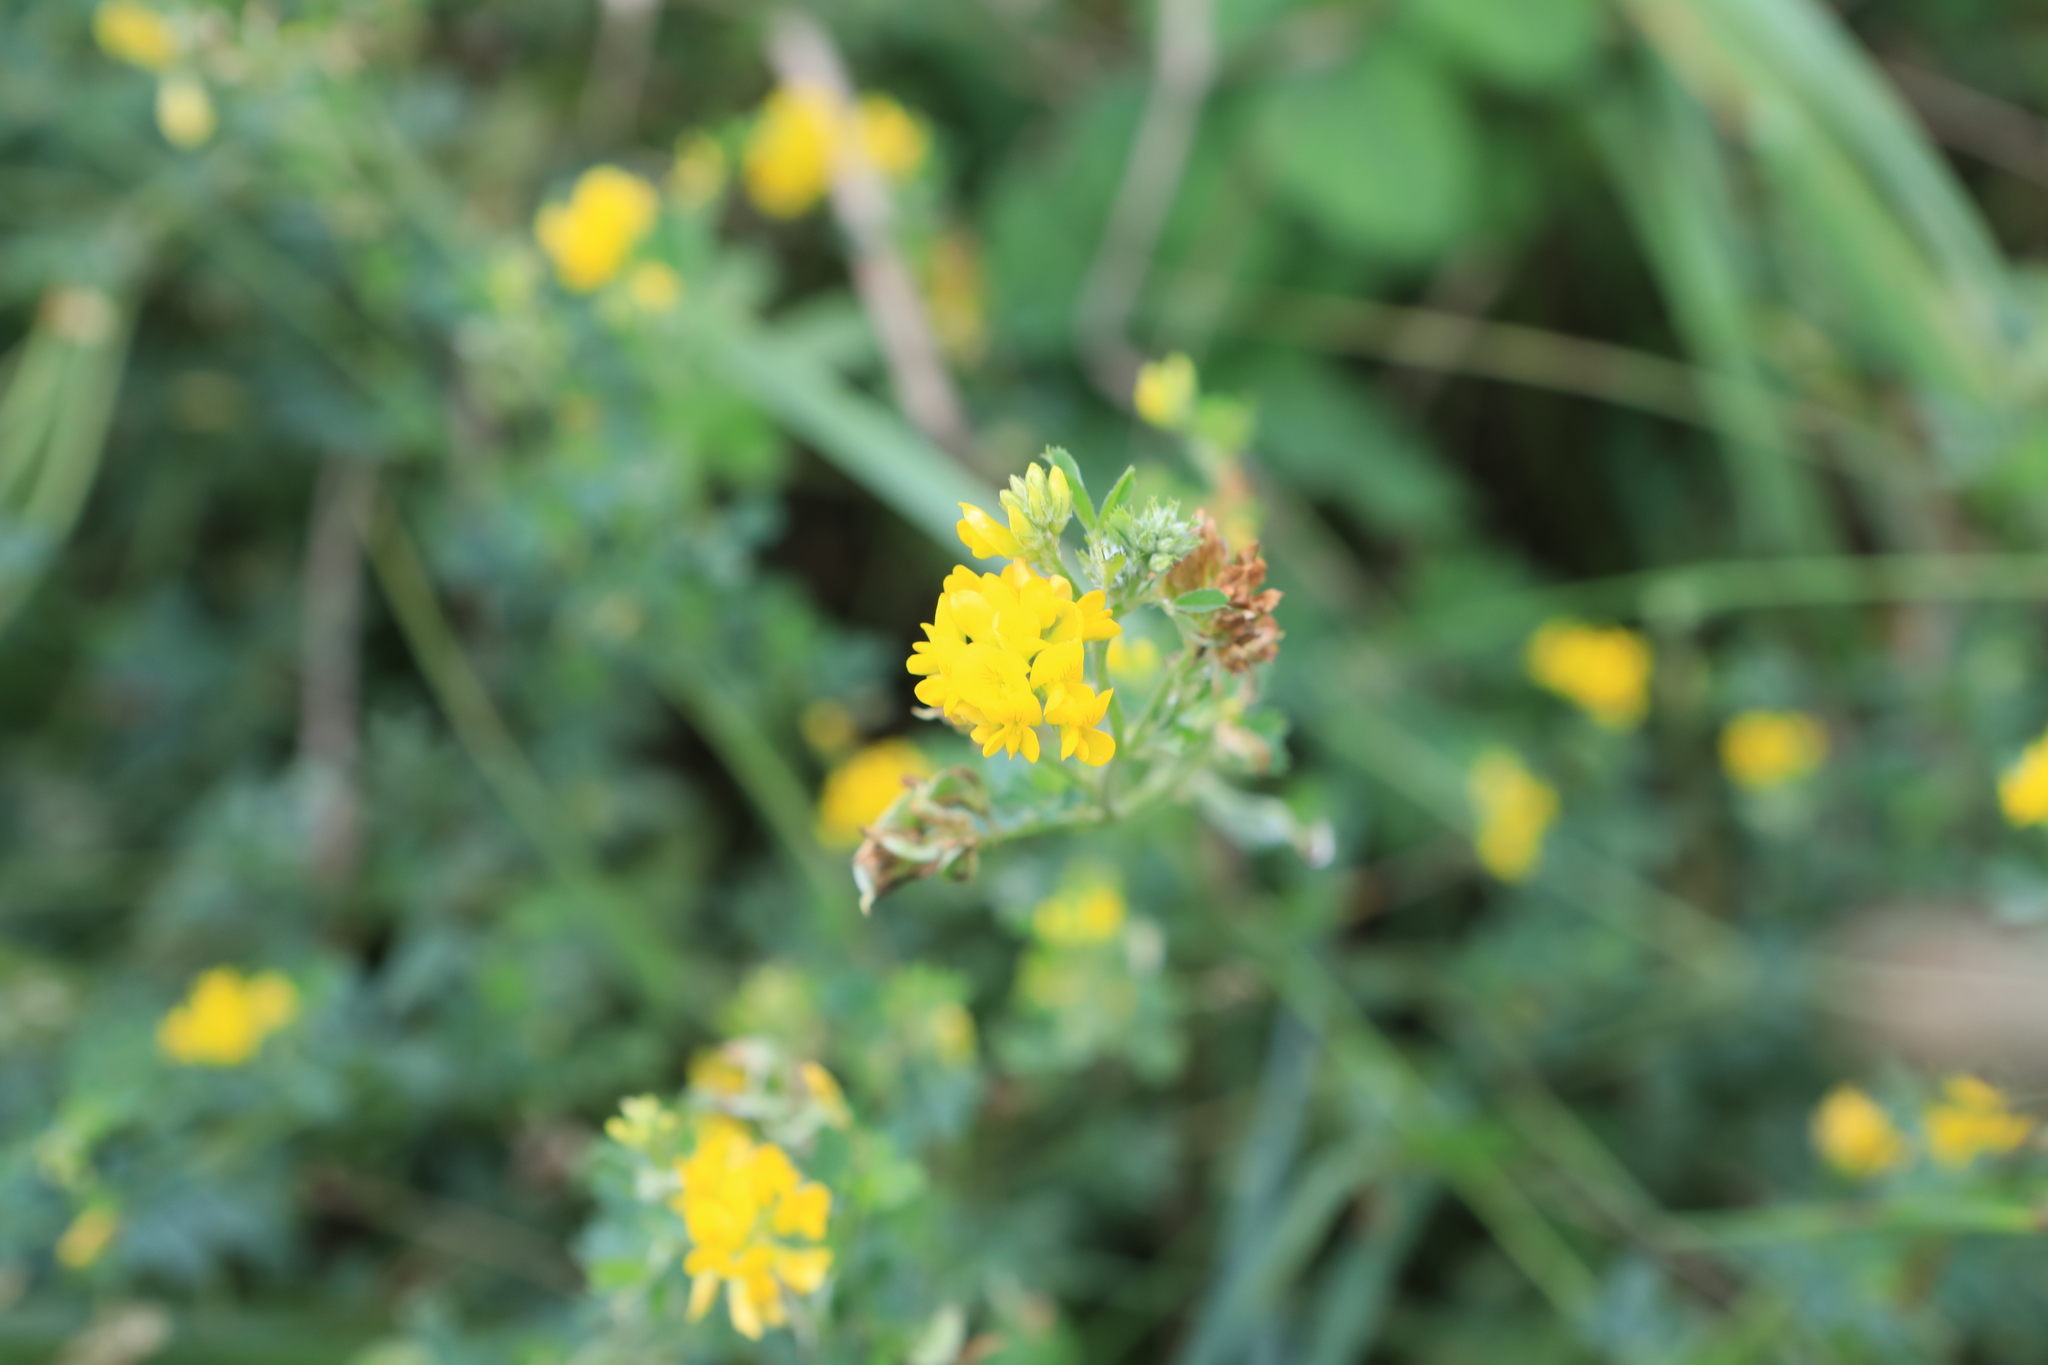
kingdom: Plantae
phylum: Tracheophyta
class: Magnoliopsida
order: Fabales
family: Fabaceae
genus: Medicago
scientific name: Medicago falcata
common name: Sickle medick
